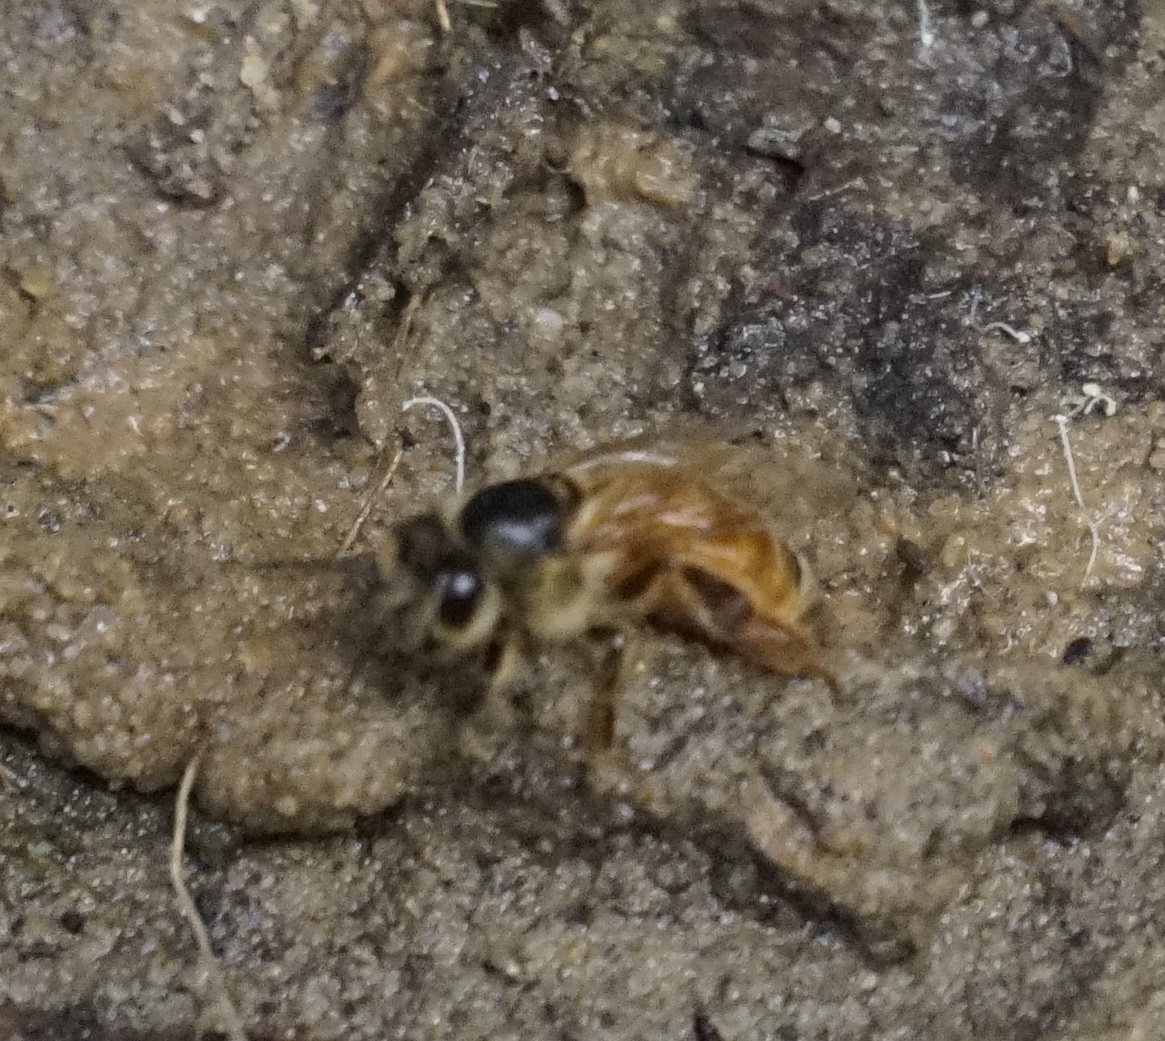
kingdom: Animalia
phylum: Arthropoda
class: Insecta
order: Hymenoptera
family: Apidae
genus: Apis
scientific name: Apis mellifera
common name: Honey bee
